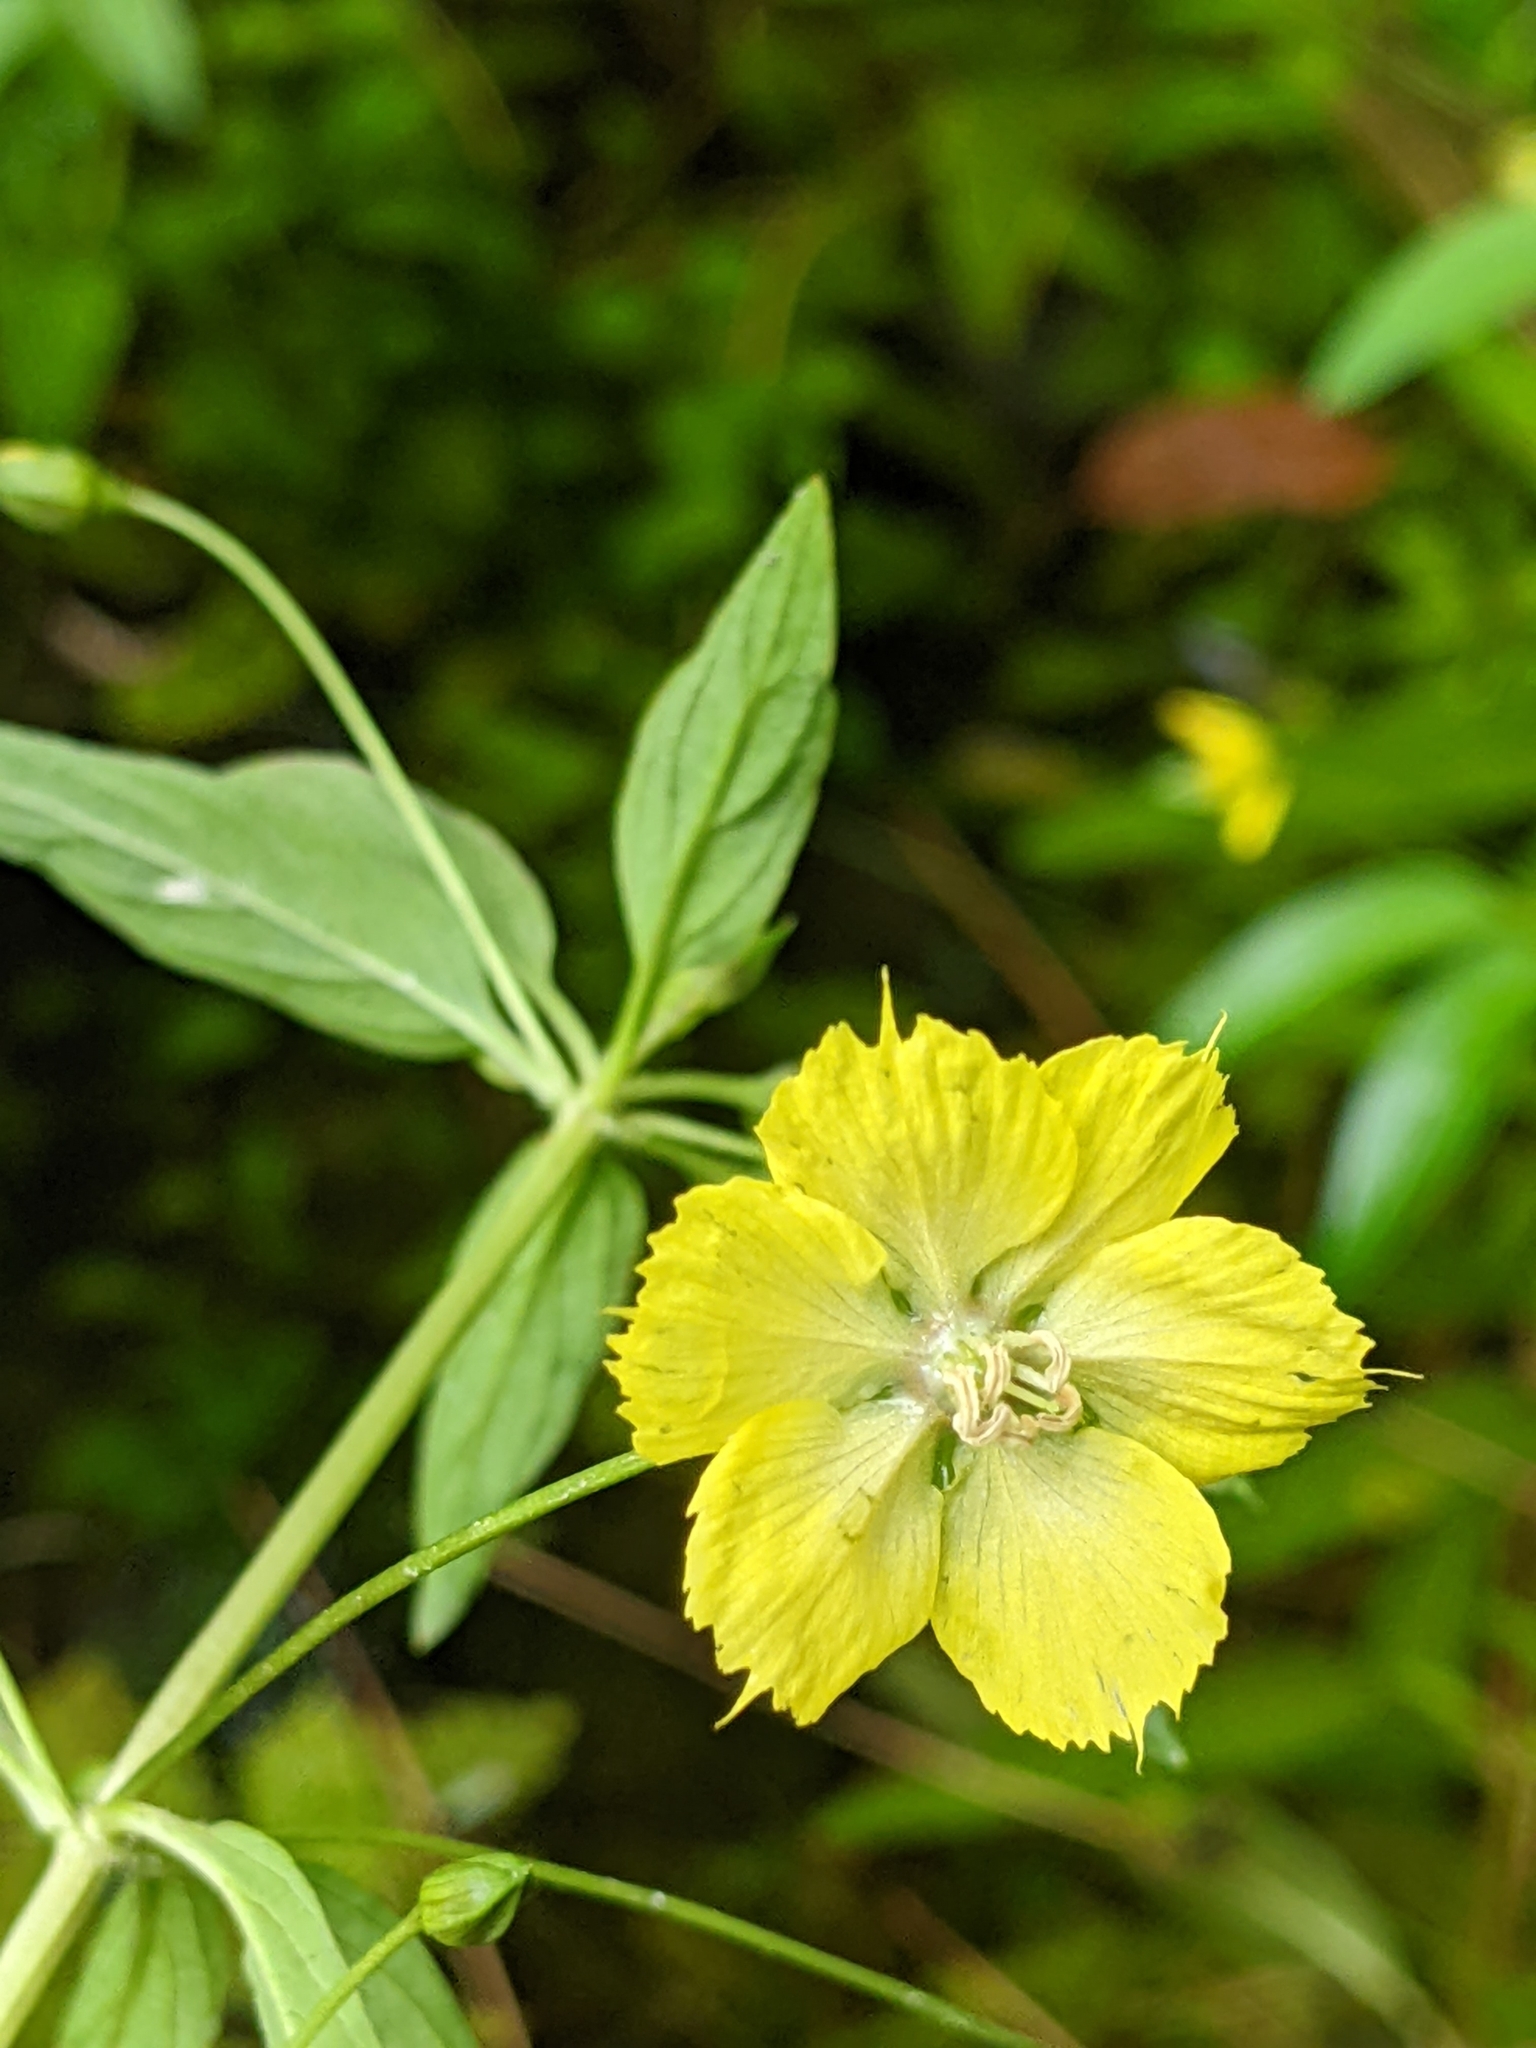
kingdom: Plantae
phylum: Tracheophyta
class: Magnoliopsida
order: Ericales
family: Primulaceae
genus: Lysimachia
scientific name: Lysimachia hybrida
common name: Lowland loosestrife
